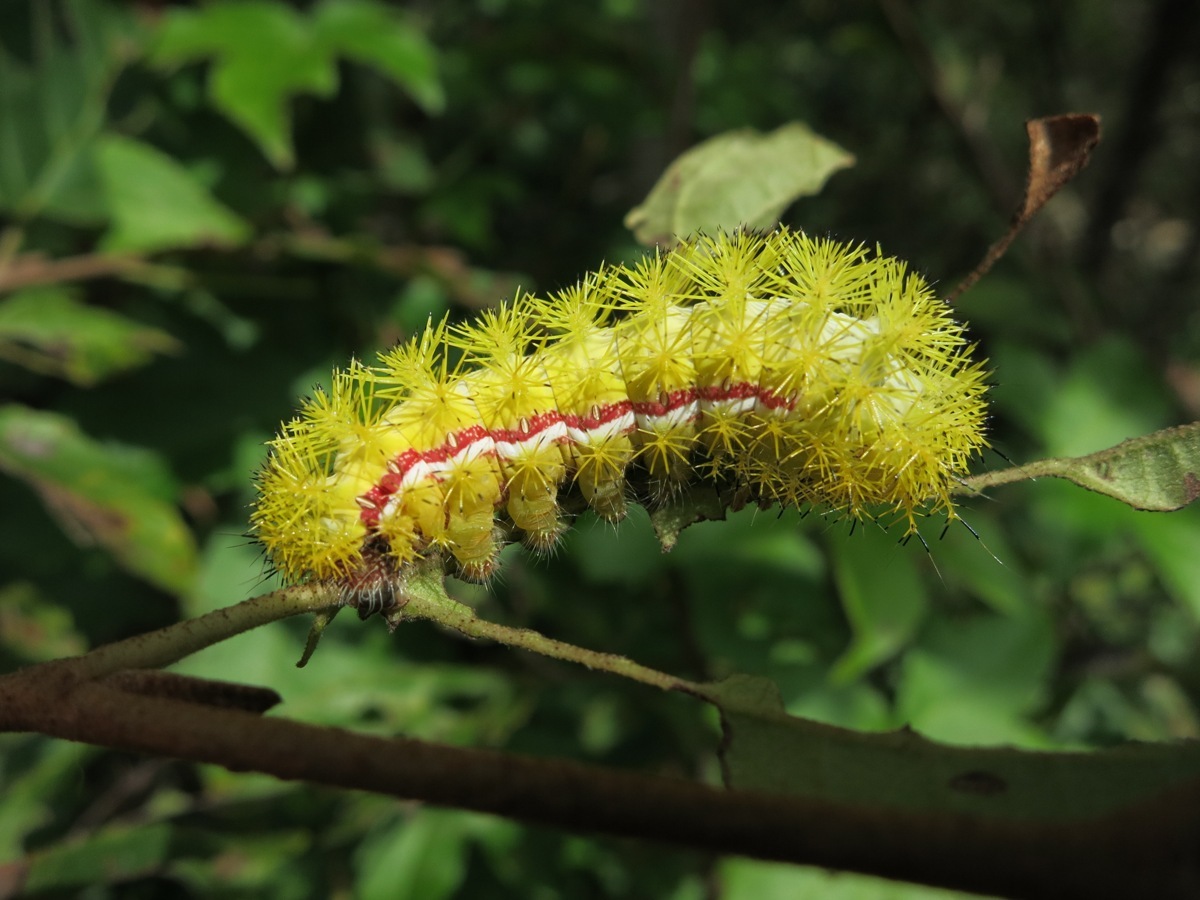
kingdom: Animalia
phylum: Arthropoda
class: Insecta
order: Lepidoptera
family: Saturniidae
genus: Automeris
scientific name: Automeris io
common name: Io moth
